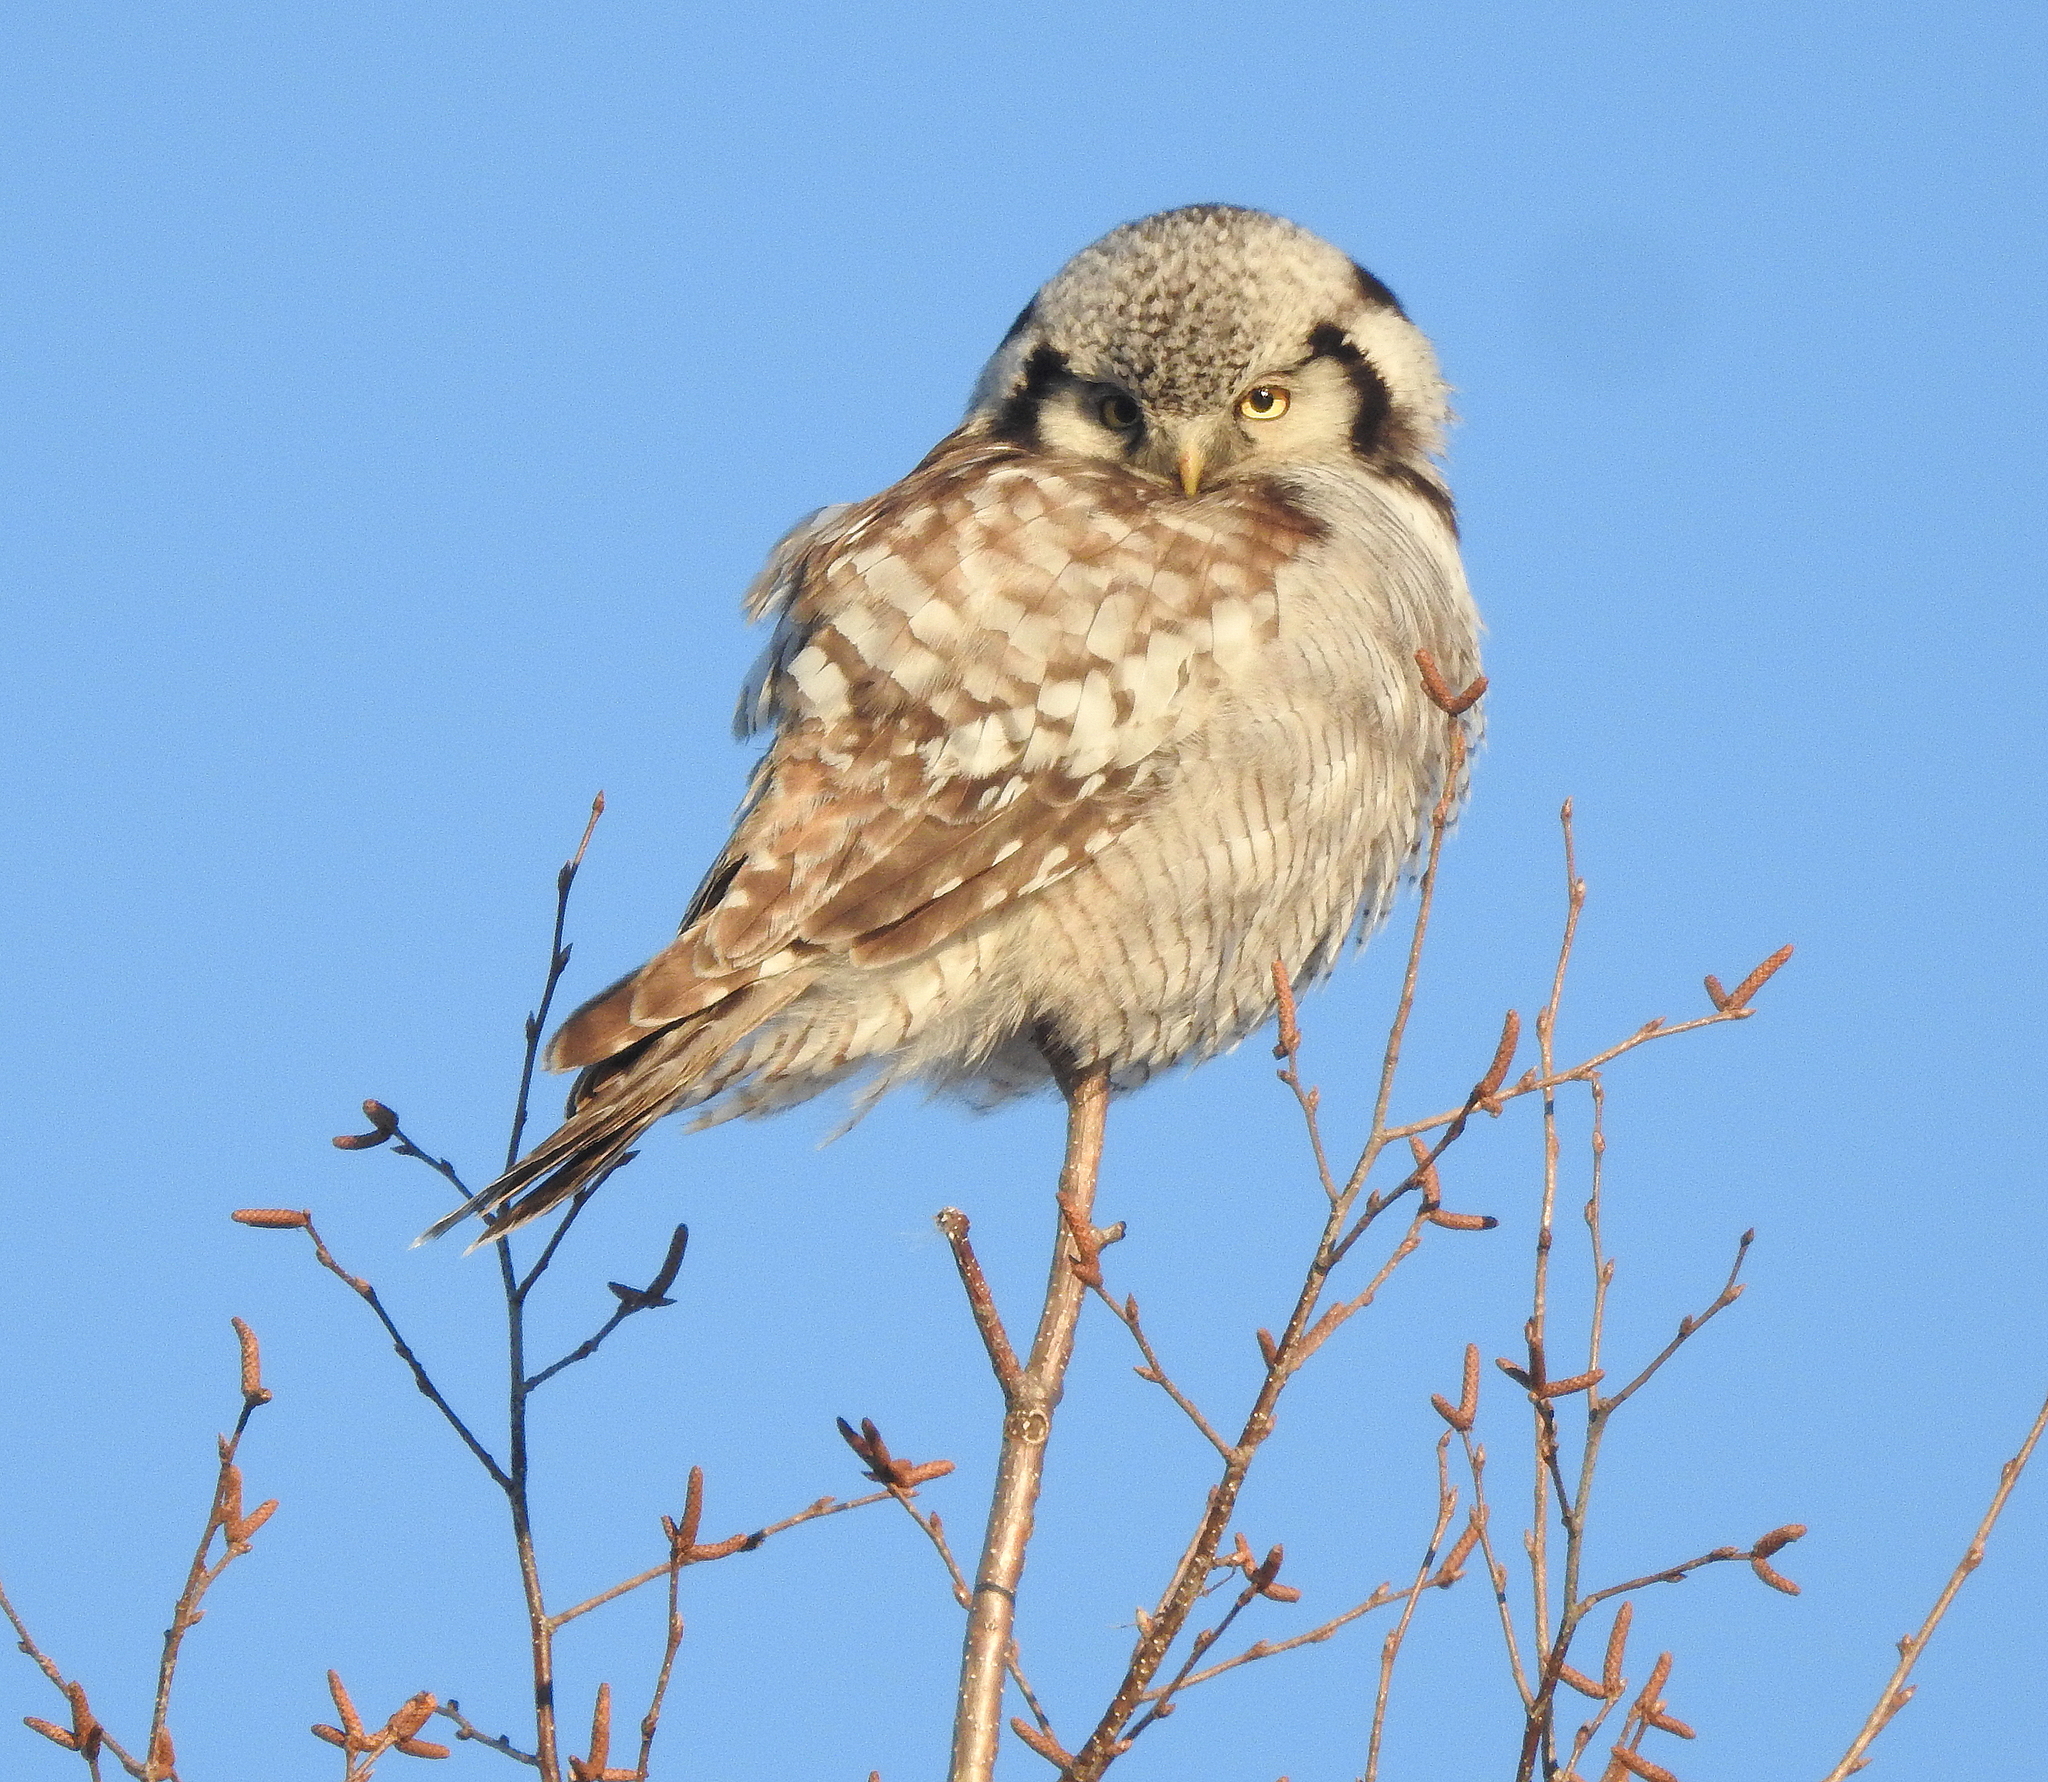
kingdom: Animalia
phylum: Chordata
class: Aves
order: Strigiformes
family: Strigidae
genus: Surnia
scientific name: Surnia ulula
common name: Northern hawk-owl
